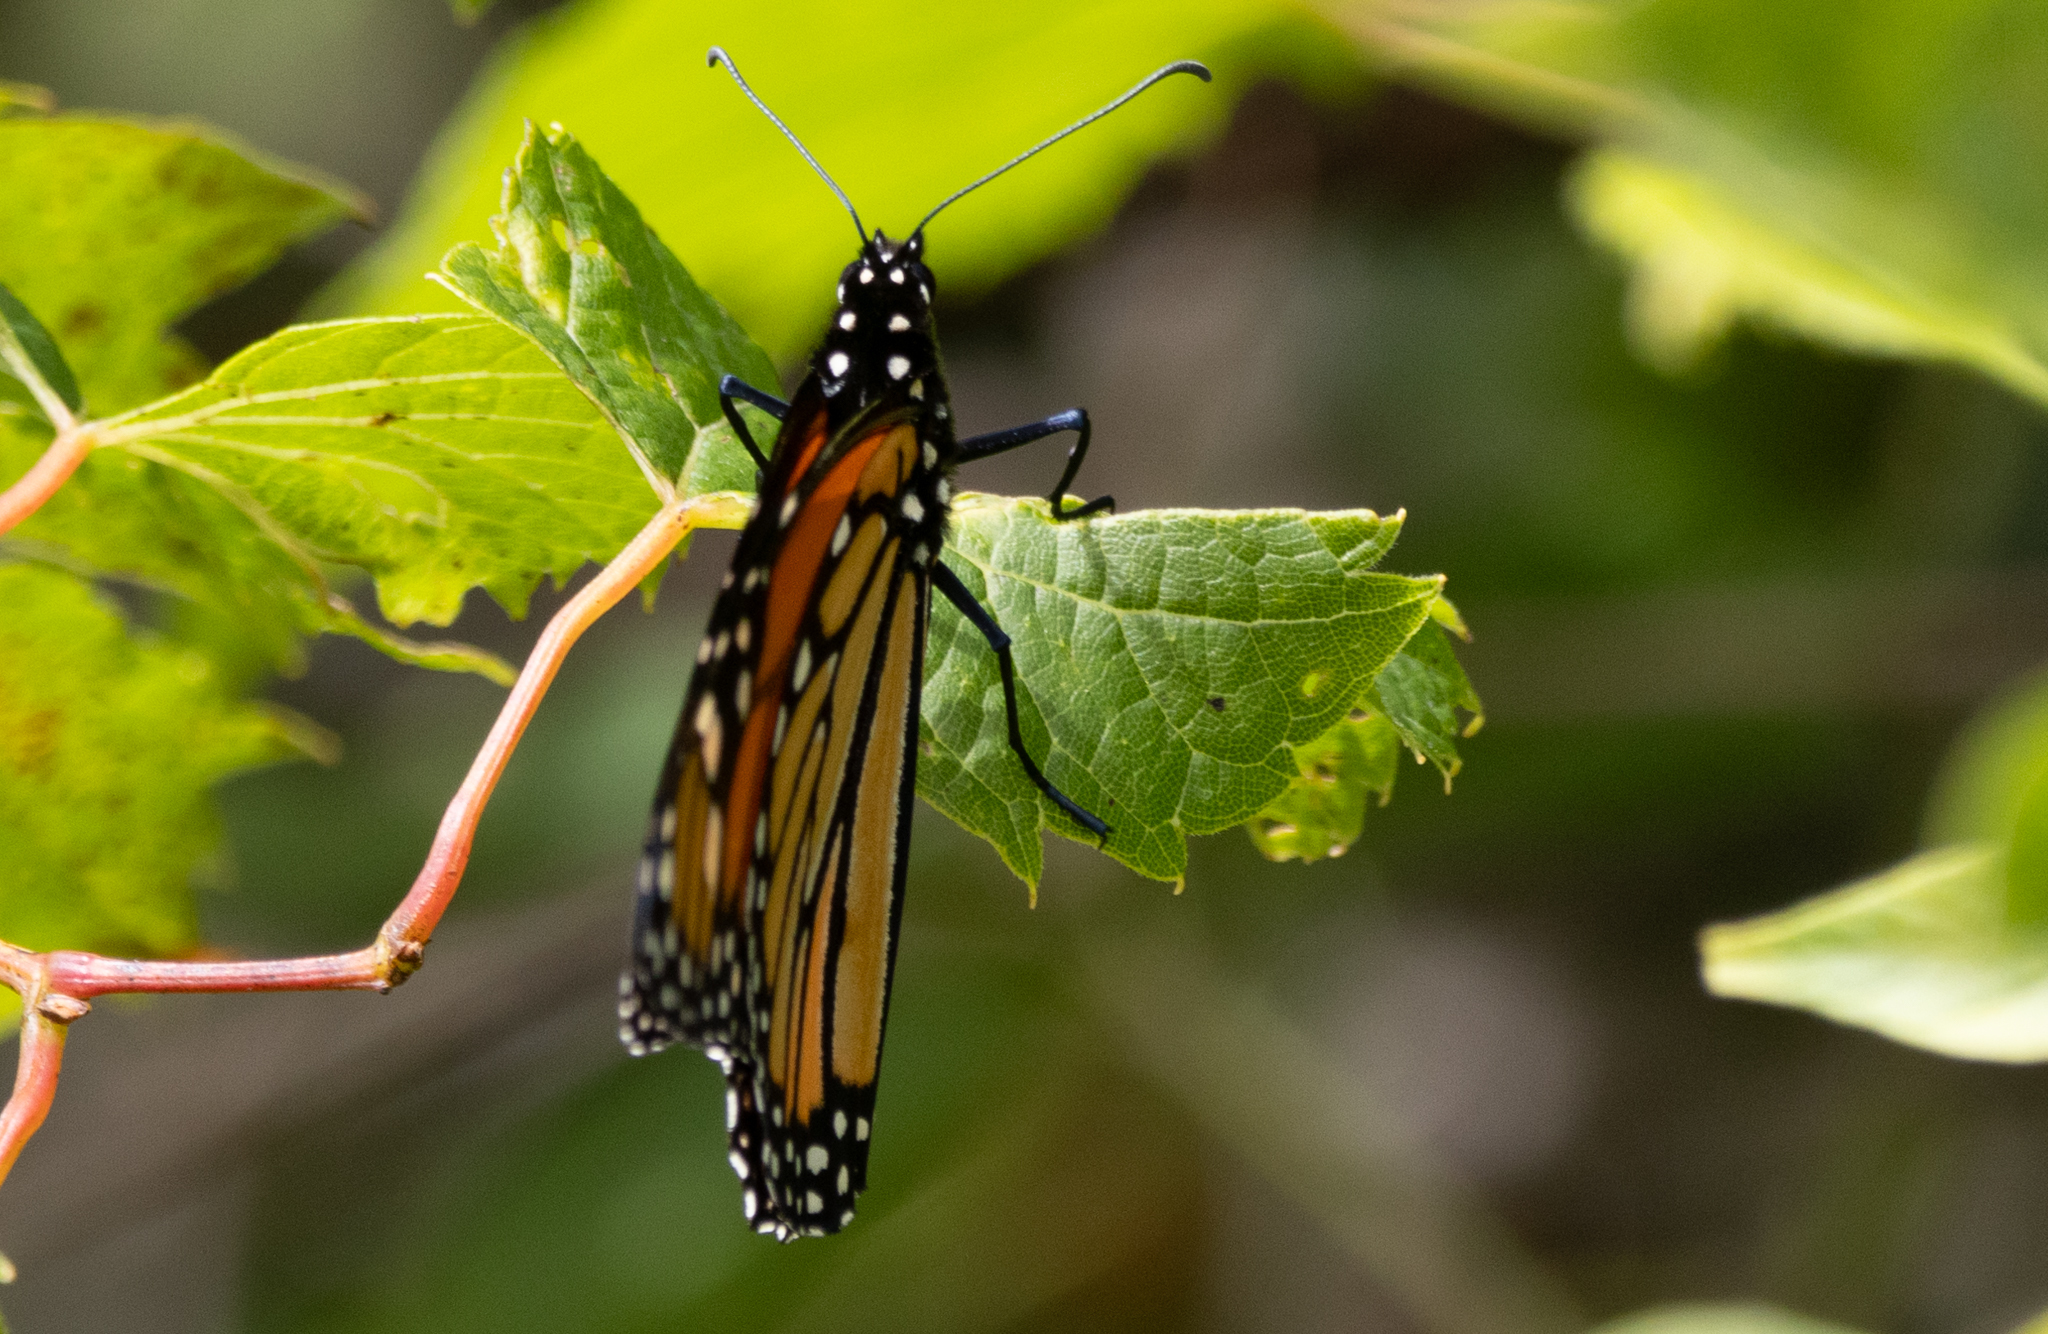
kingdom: Animalia
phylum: Arthropoda
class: Insecta
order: Lepidoptera
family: Nymphalidae
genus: Danaus
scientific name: Danaus plexippus
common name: Monarch
